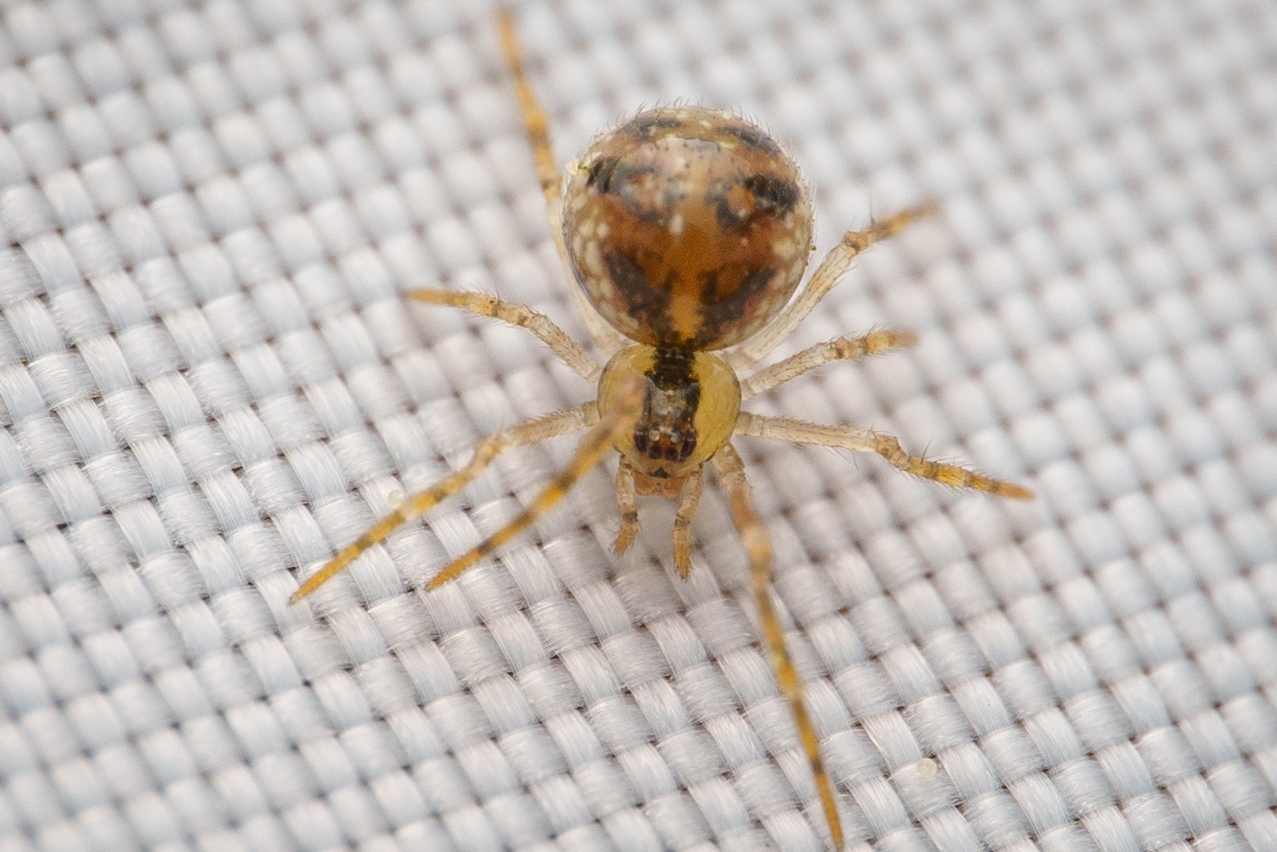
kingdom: Animalia
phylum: Arthropoda
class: Arachnida
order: Araneae
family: Theridiidae
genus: Rugathodes
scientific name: Rugathodes sexpunctatus
